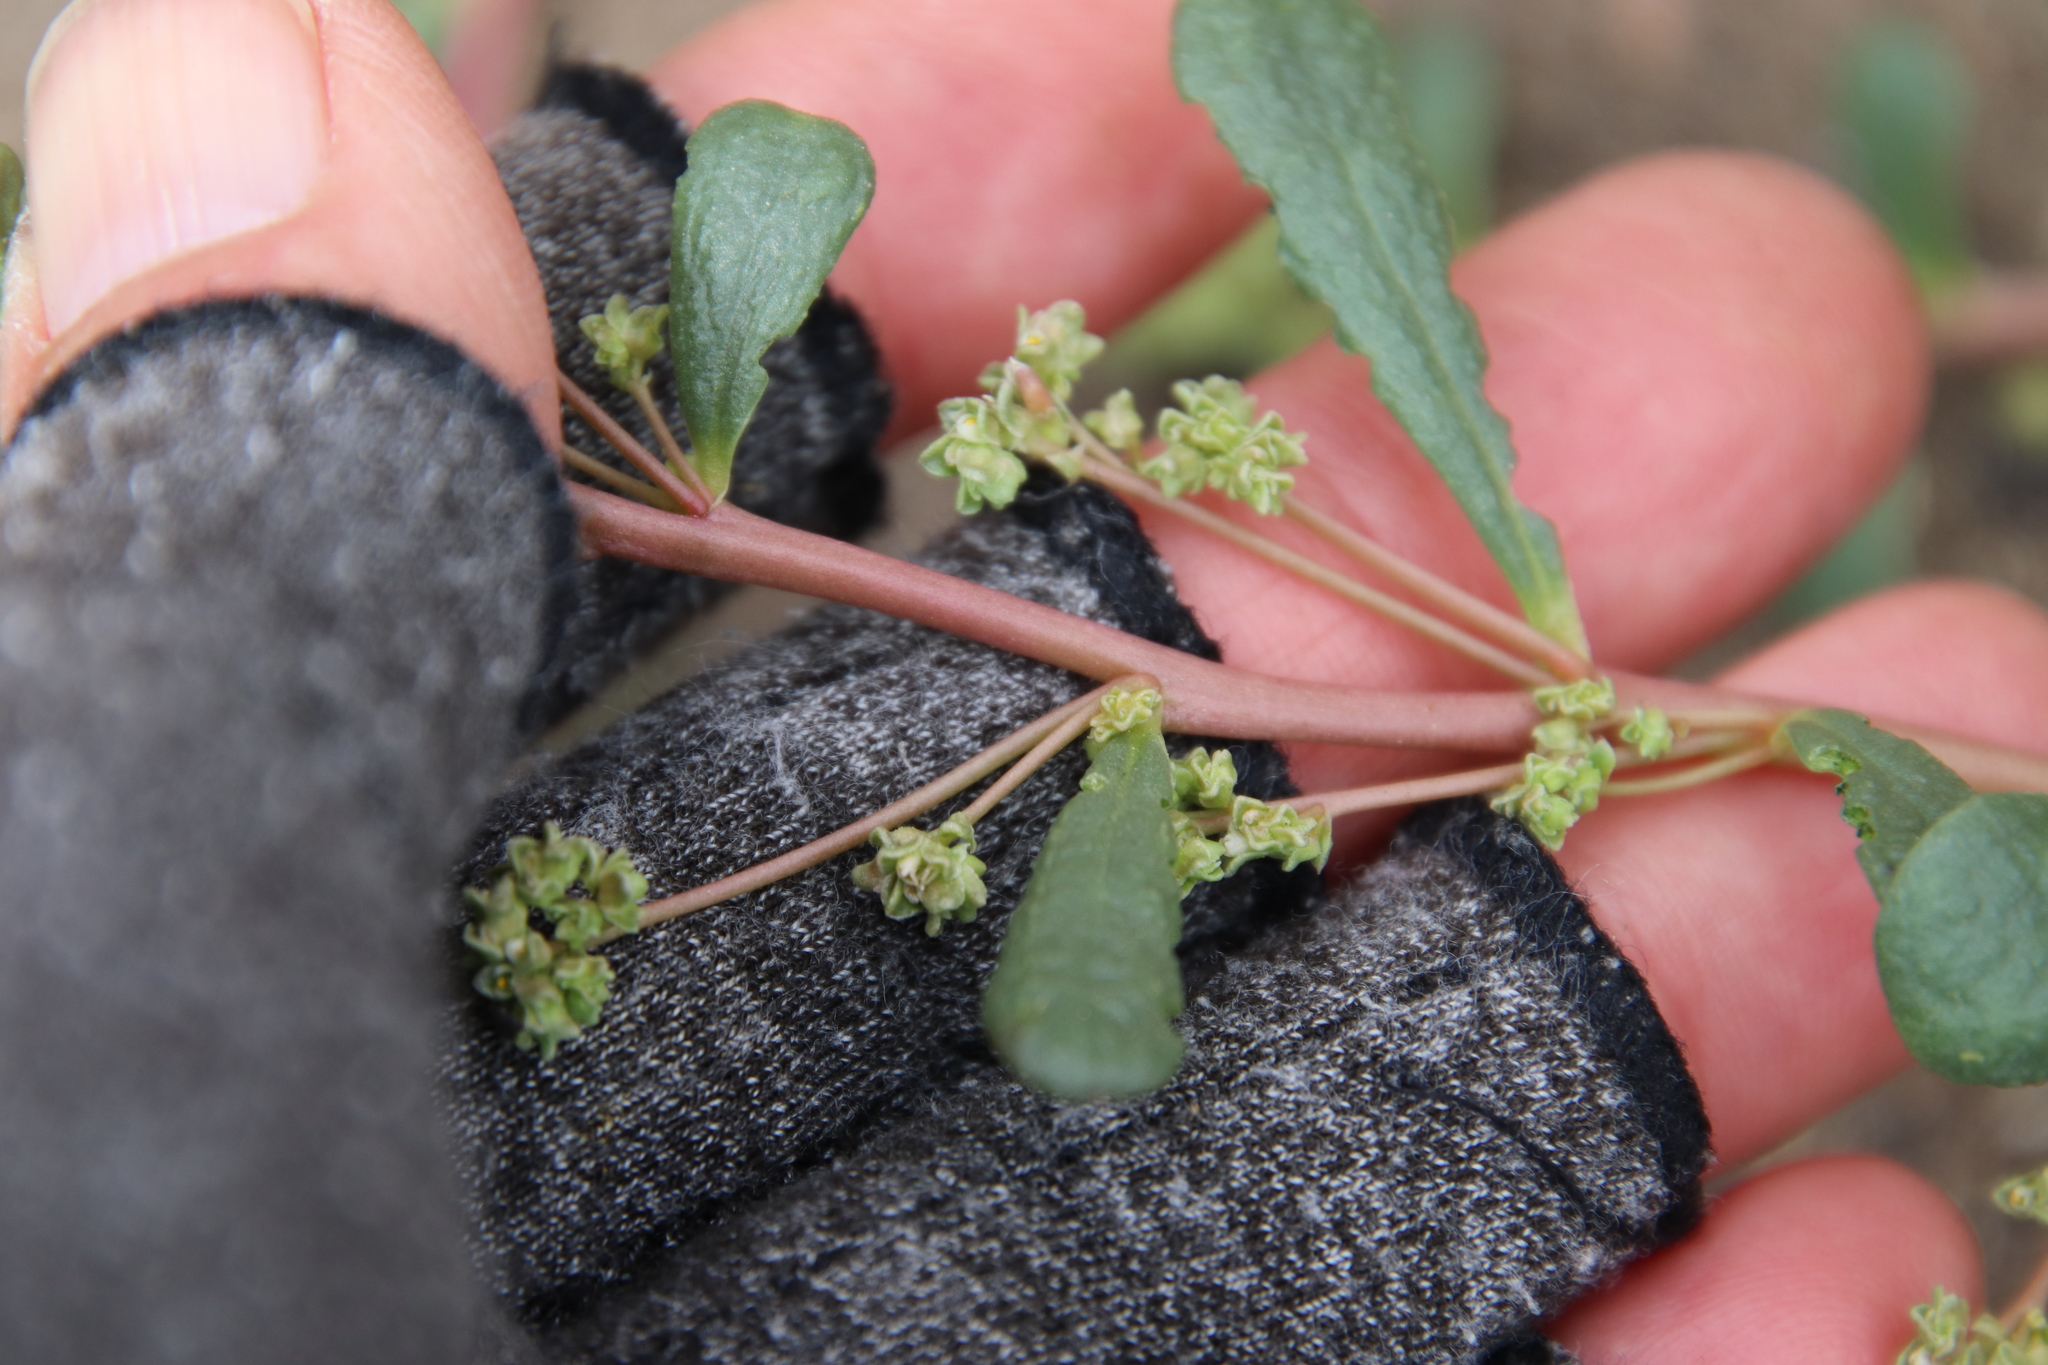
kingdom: Plantae
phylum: Tracheophyta
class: Magnoliopsida
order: Caryophyllales
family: Montiaceae
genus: Calyptridium
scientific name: Calyptridium monandrum
